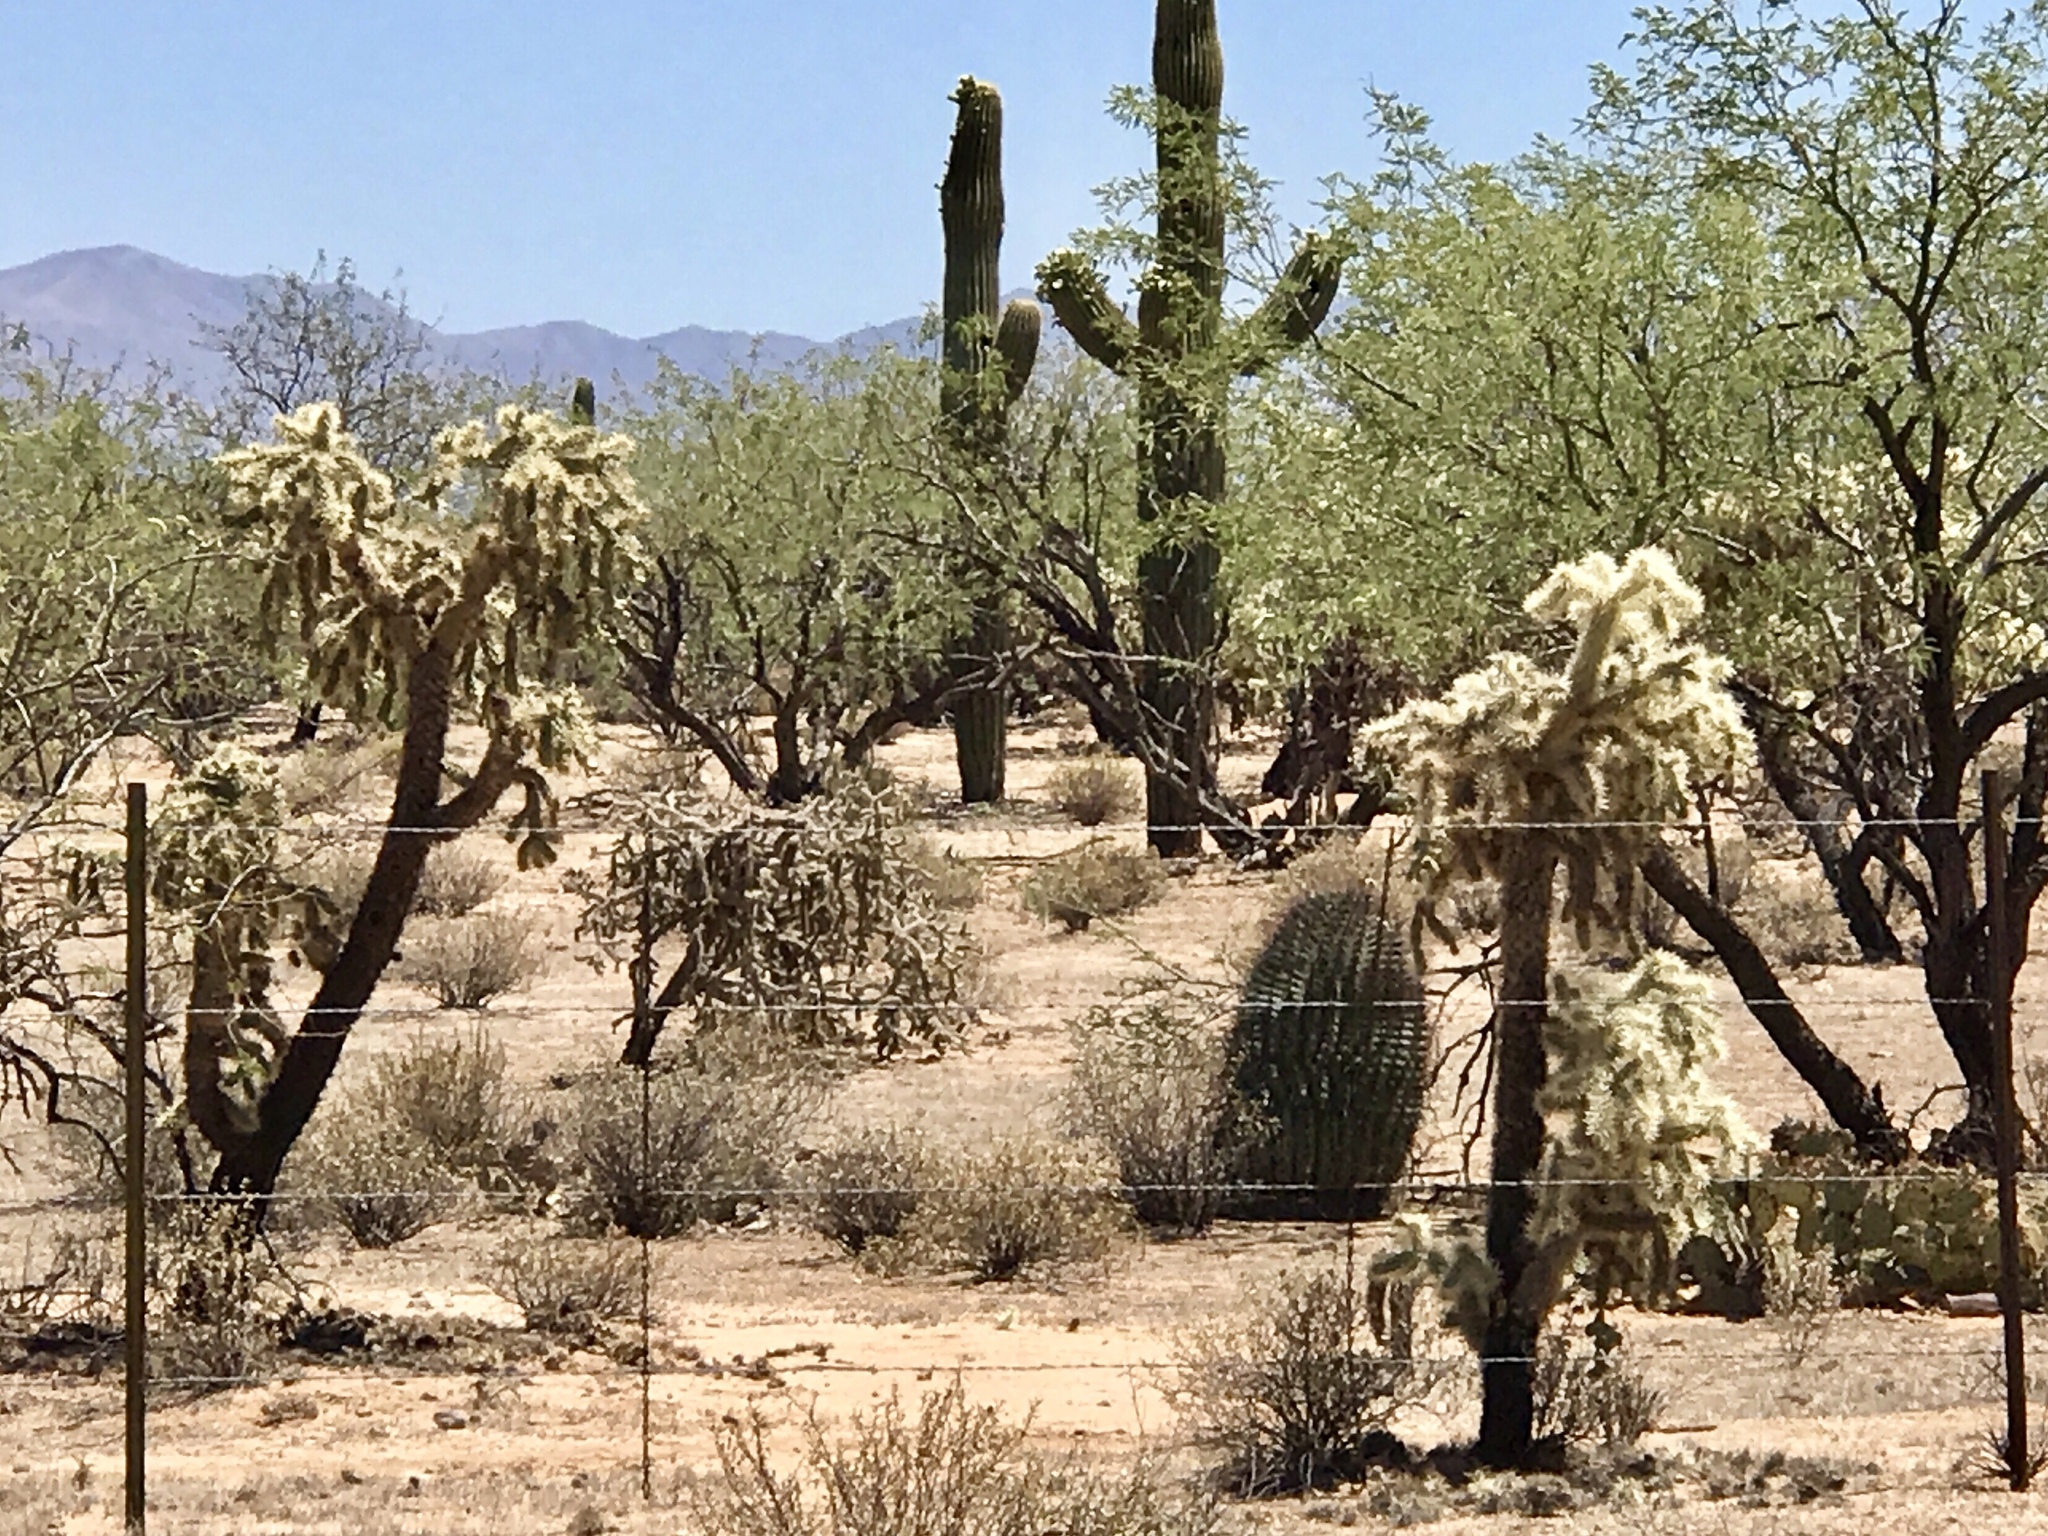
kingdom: Plantae
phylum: Tracheophyta
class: Magnoliopsida
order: Caryophyllales
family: Cactaceae
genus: Cylindropuntia
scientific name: Cylindropuntia fulgida
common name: Jumping cholla
